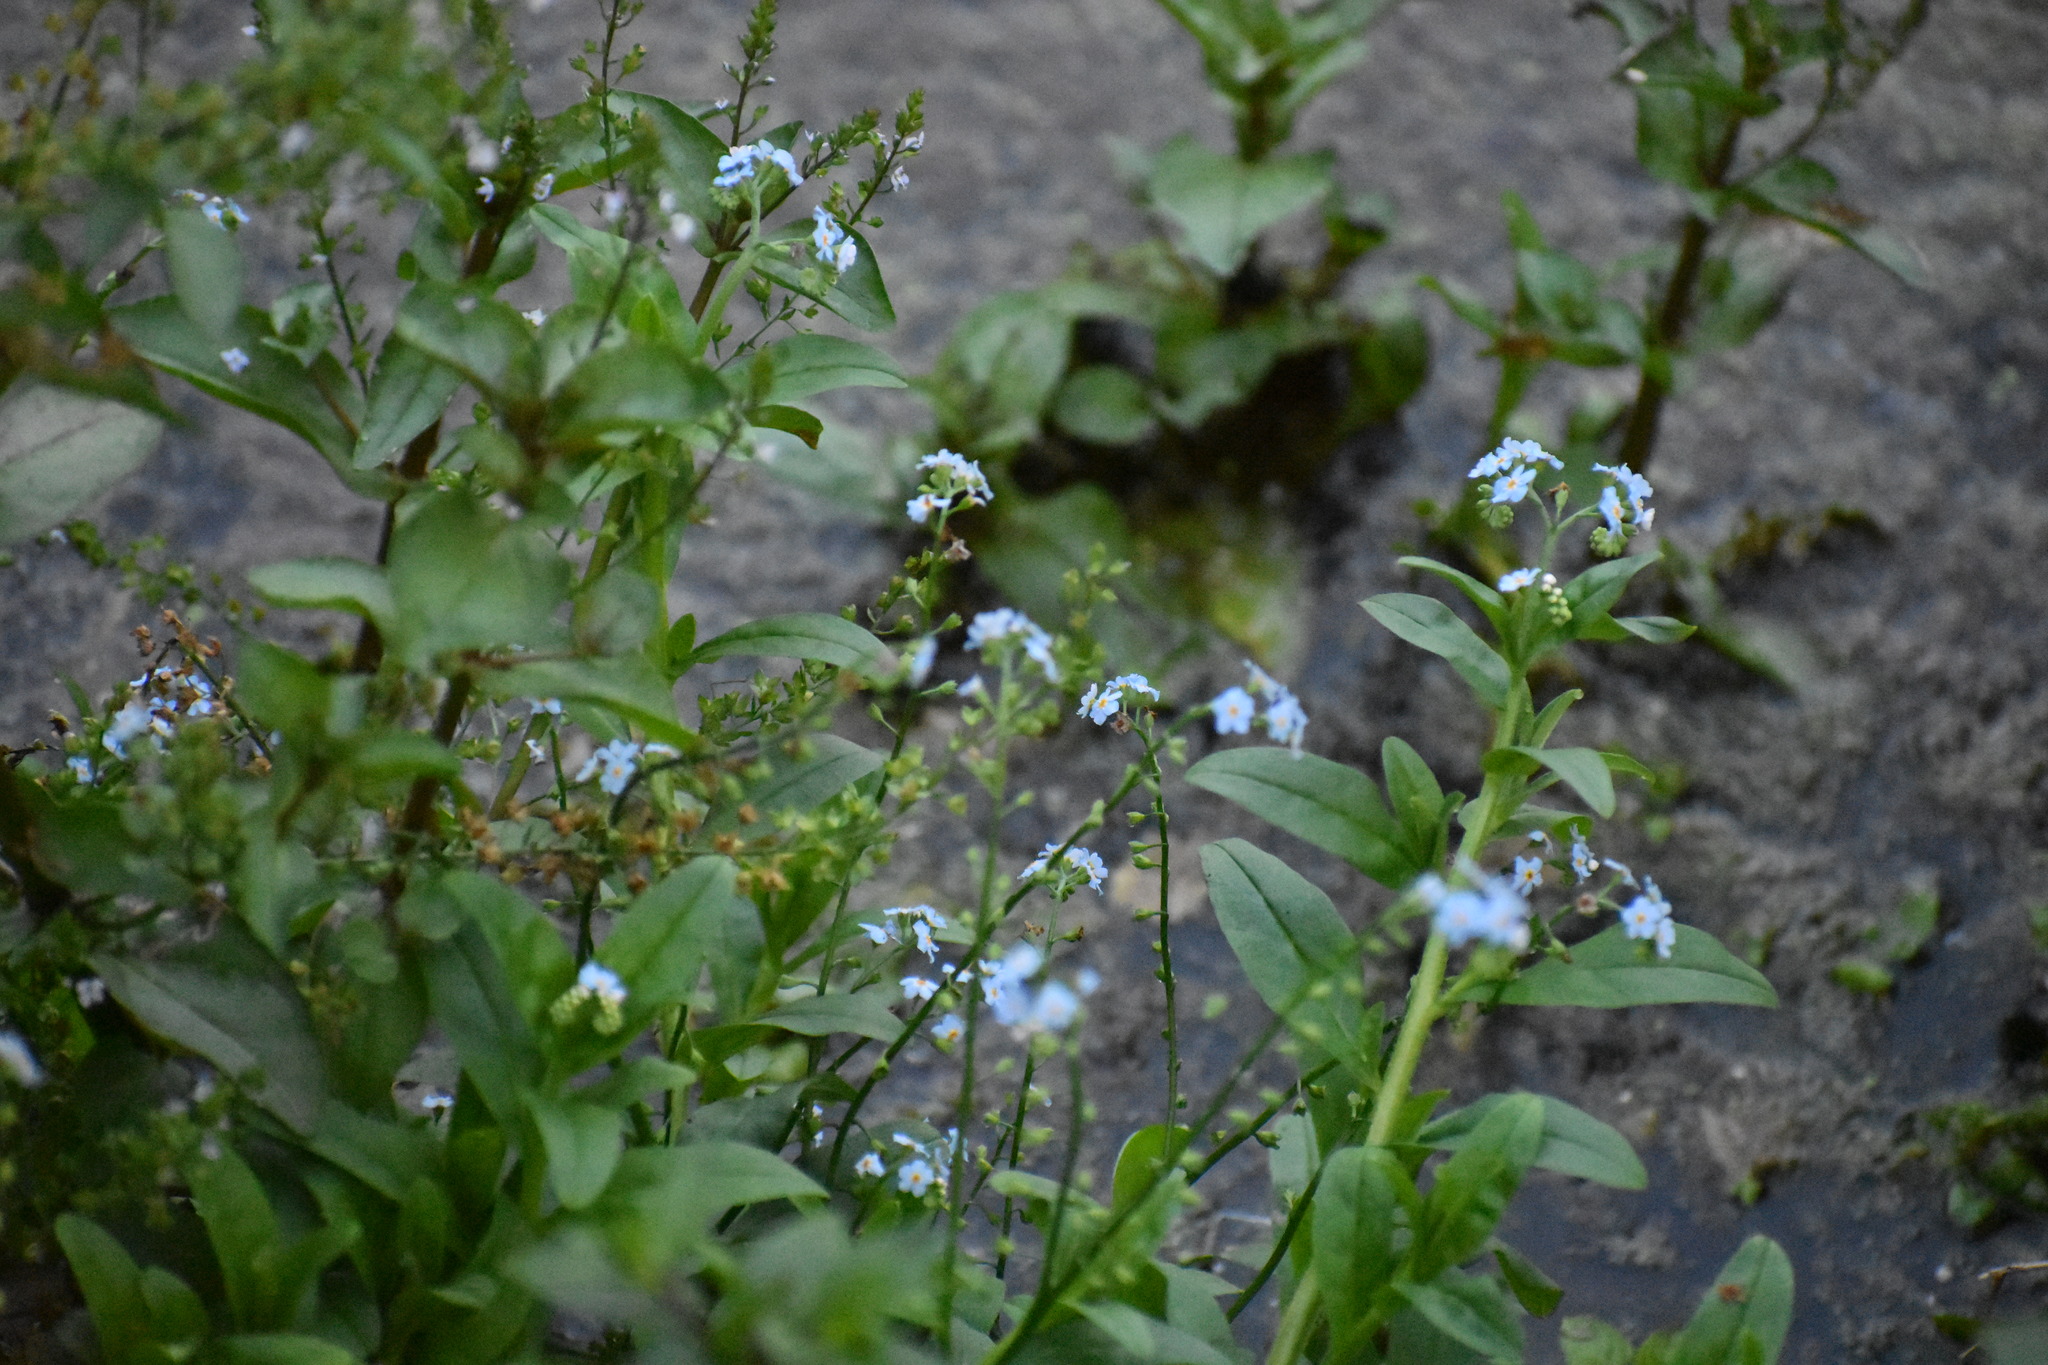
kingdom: Plantae
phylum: Tracheophyta
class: Magnoliopsida
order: Boraginales
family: Boraginaceae
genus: Myosotis
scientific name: Myosotis scorpioides
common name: Water forget-me-not
